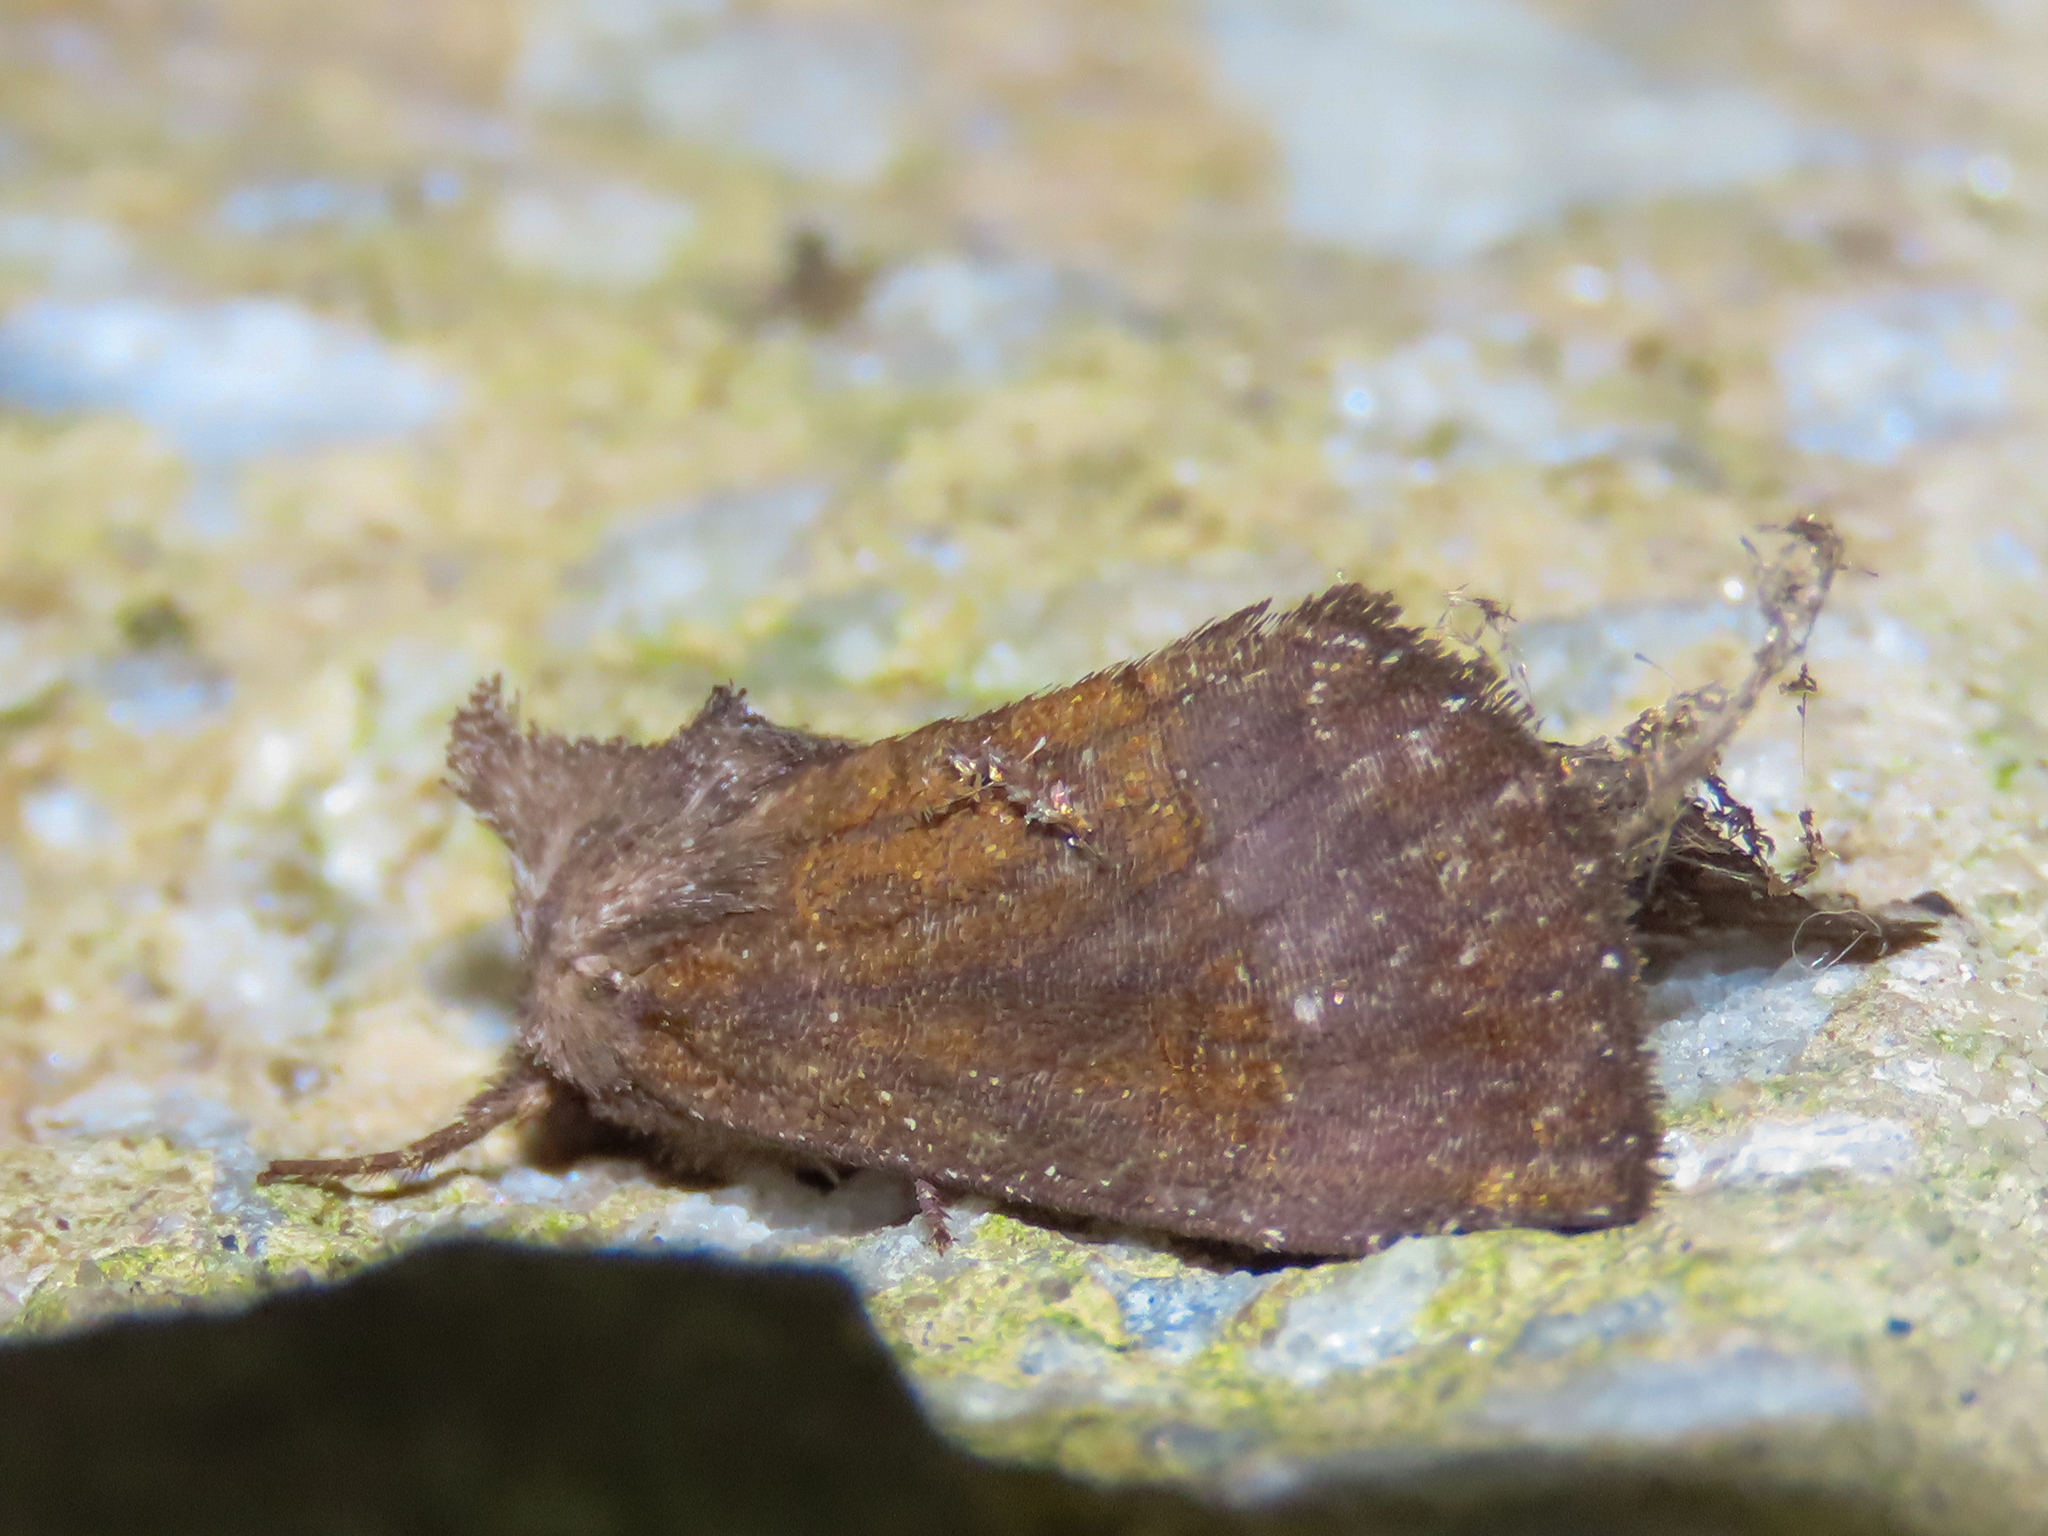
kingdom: Animalia
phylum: Arthropoda
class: Insecta
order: Lepidoptera
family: Noctuidae
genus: Papaipema
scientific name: Papaipema nelita
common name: Coneflower borer moth
